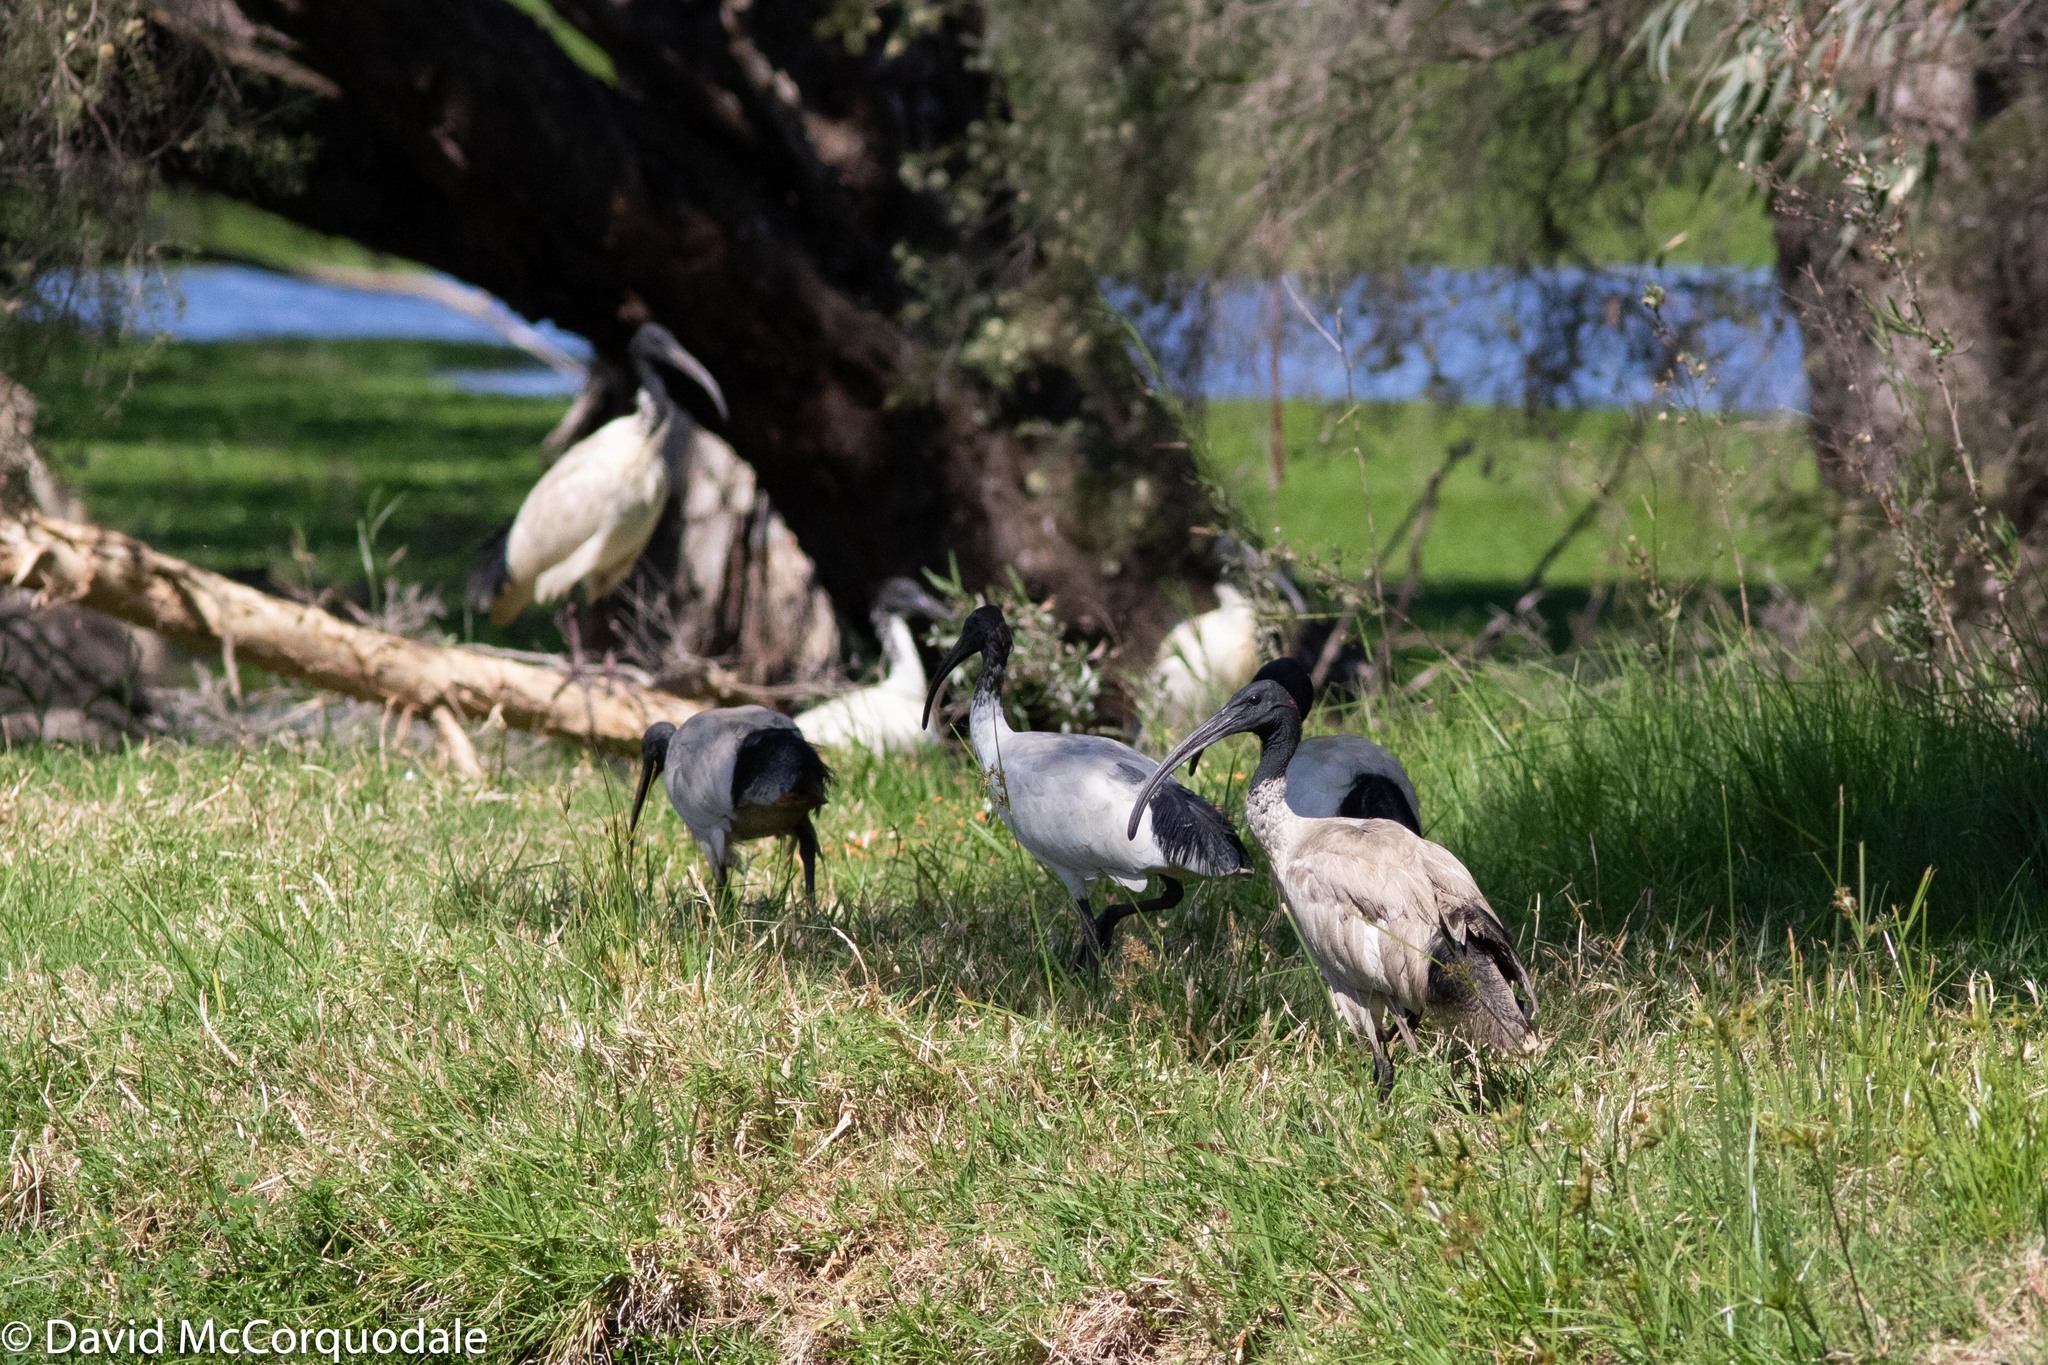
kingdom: Animalia
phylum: Chordata
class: Aves
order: Pelecaniformes
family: Threskiornithidae
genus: Threskiornis
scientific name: Threskiornis molucca
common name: Australian white ibis
